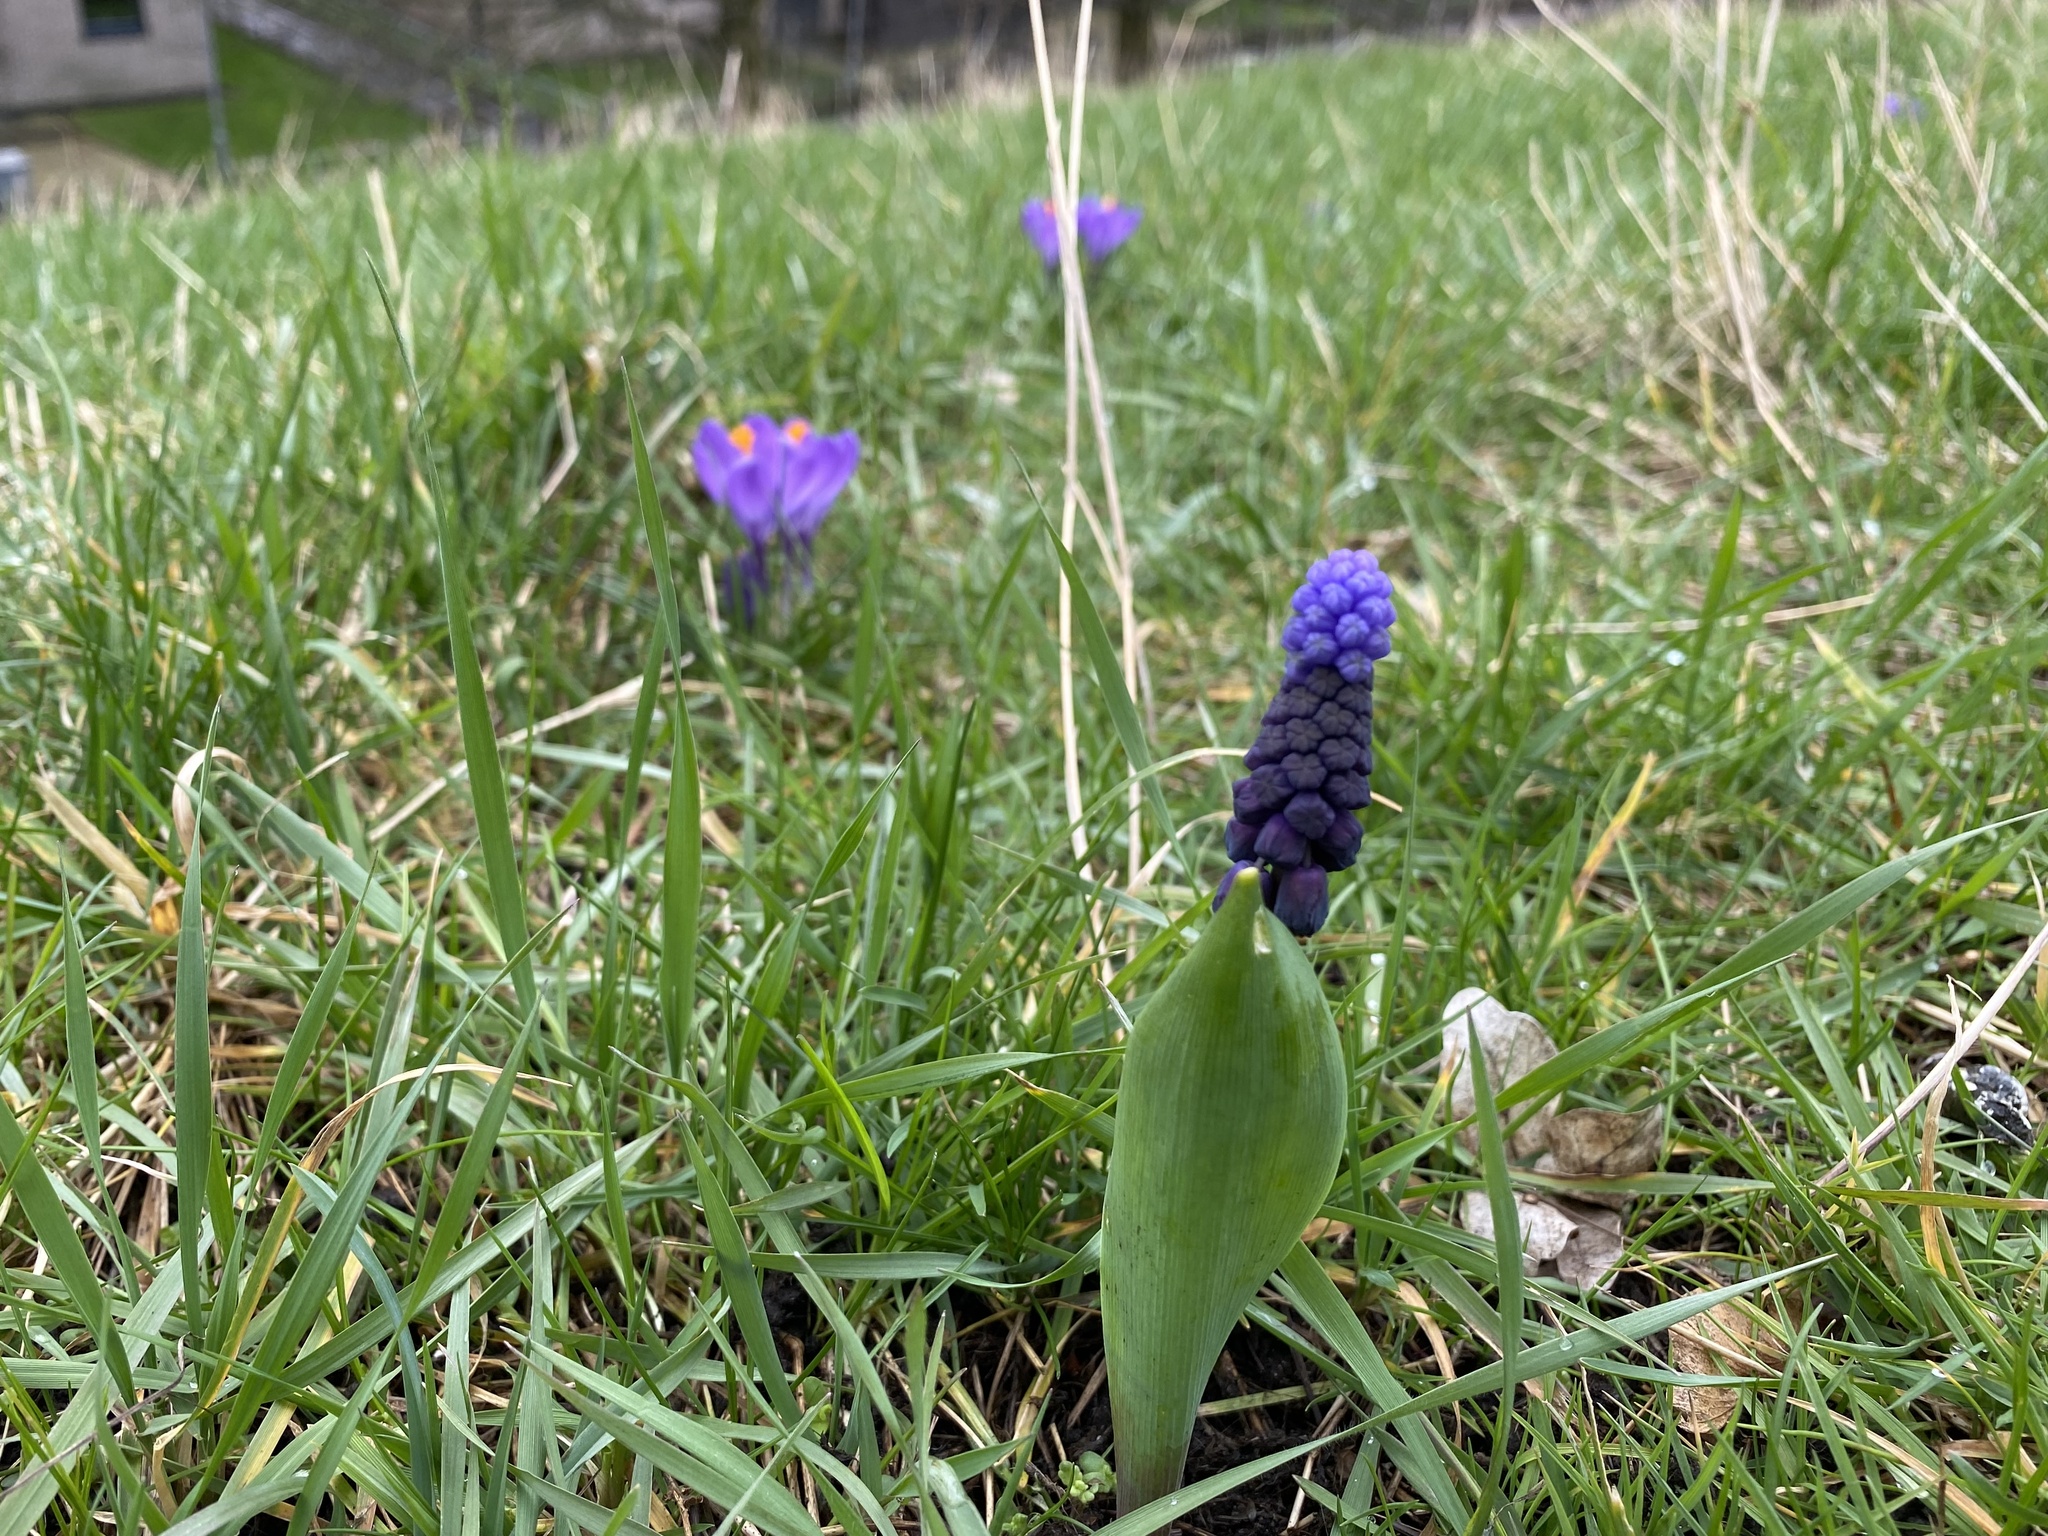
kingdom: Plantae
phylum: Tracheophyta
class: Liliopsida
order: Asparagales
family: Asparagaceae
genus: Muscari
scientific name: Muscari latifolium
